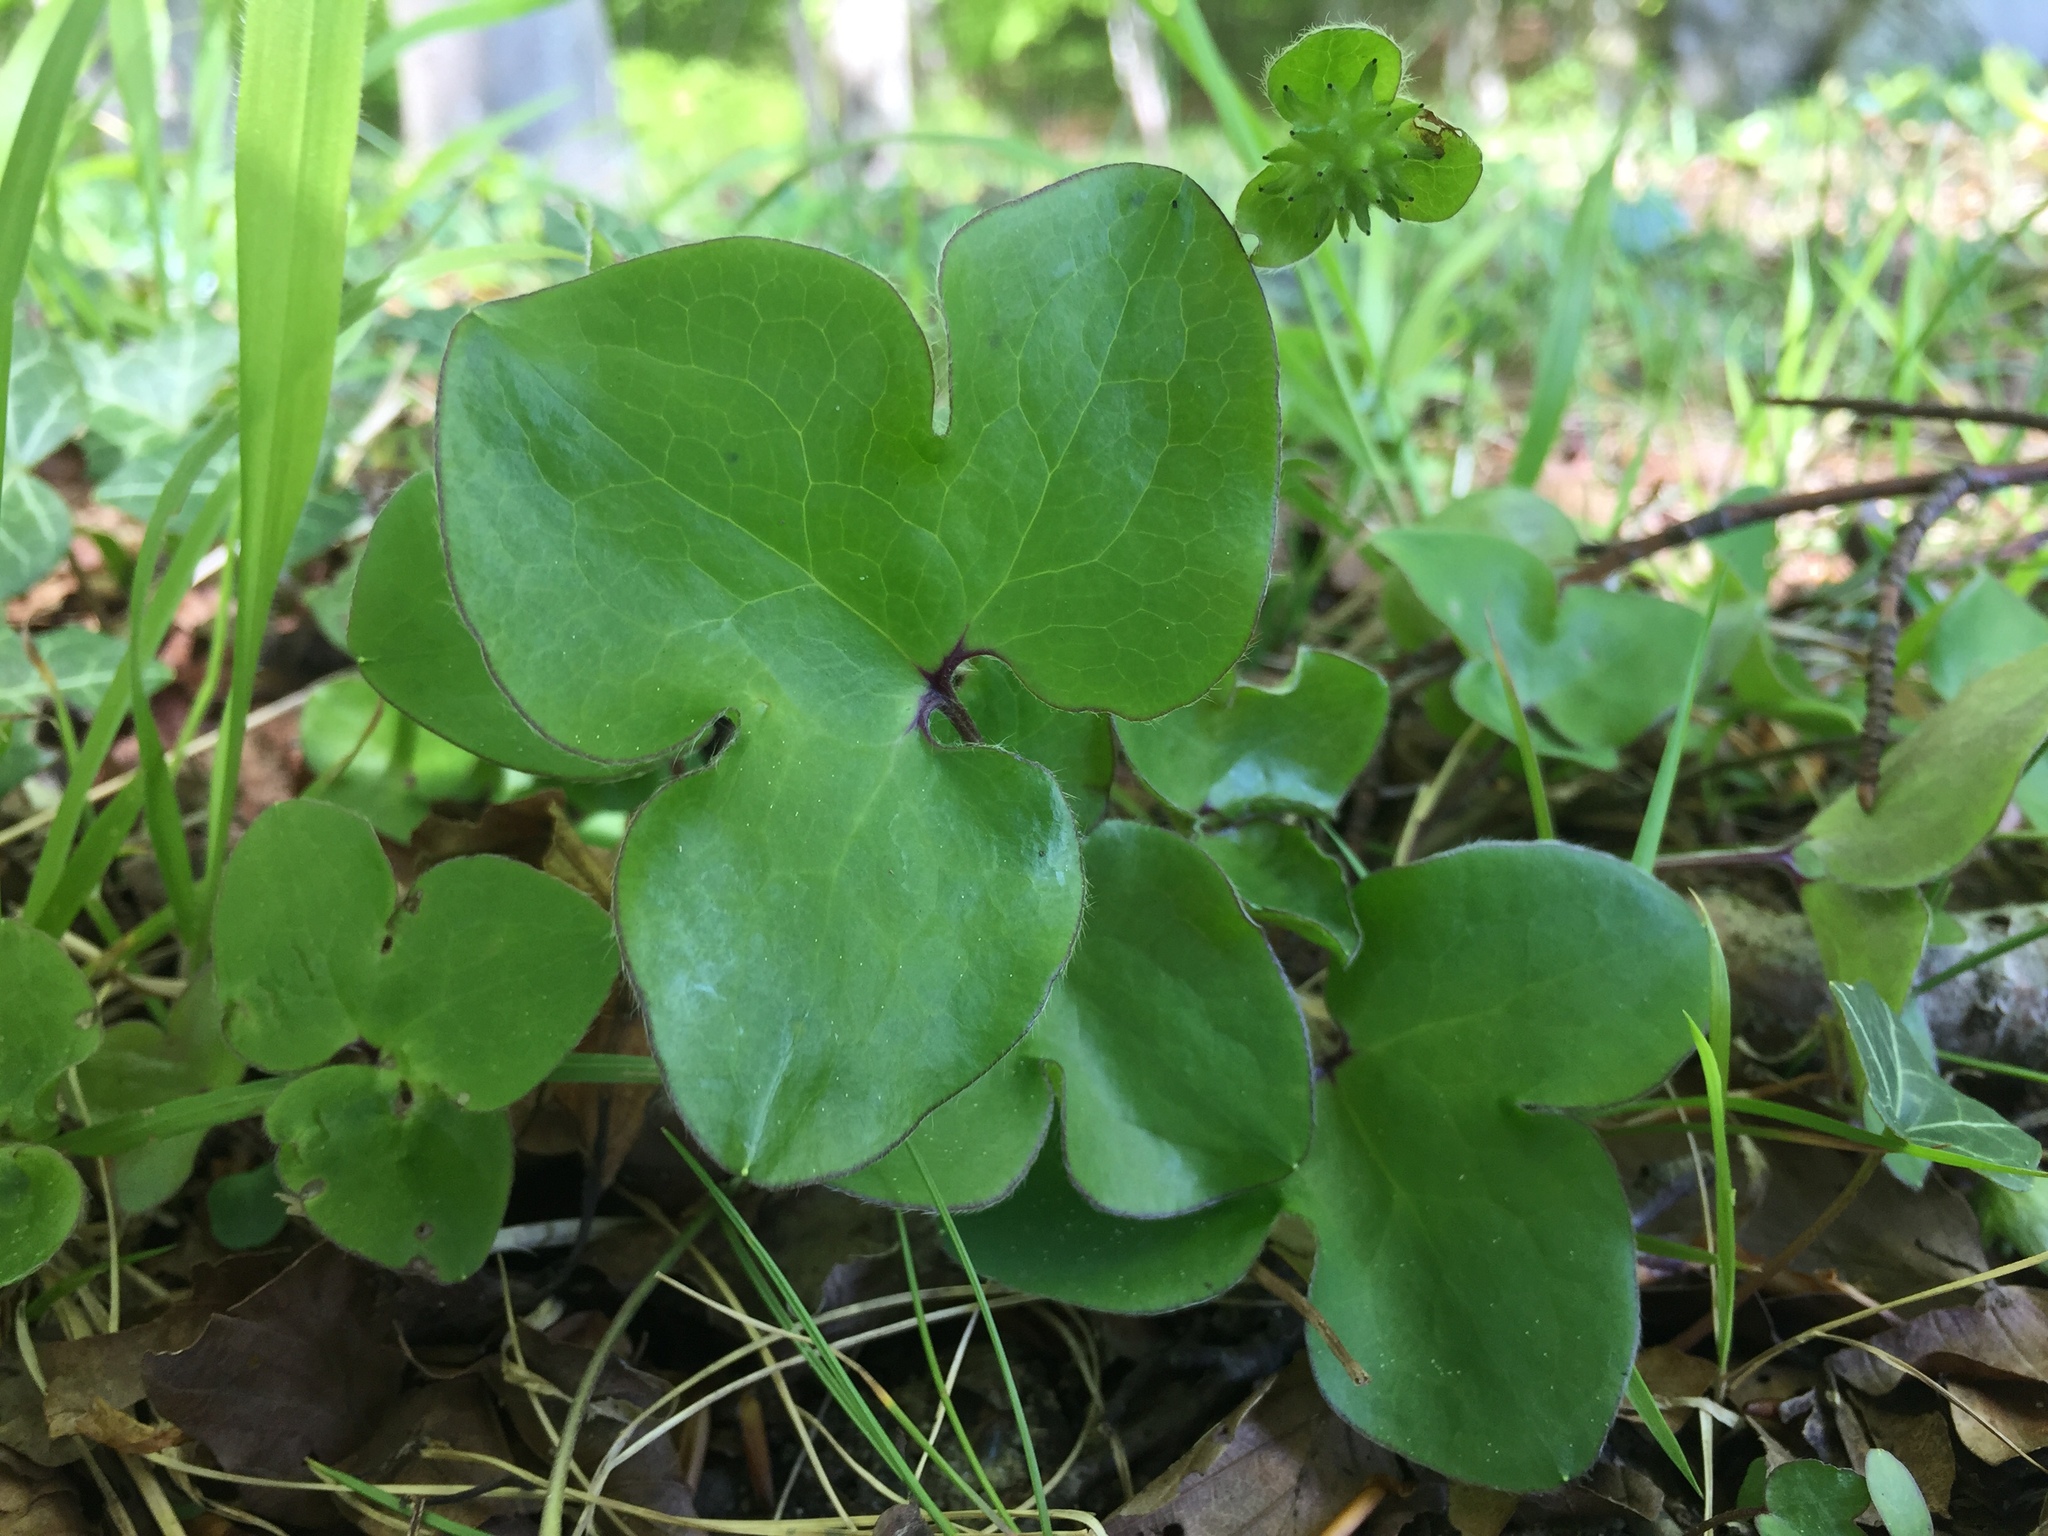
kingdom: Plantae
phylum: Tracheophyta
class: Magnoliopsida
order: Ranunculales
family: Ranunculaceae
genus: Hepatica
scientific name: Hepatica nobilis
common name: Liverleaf
